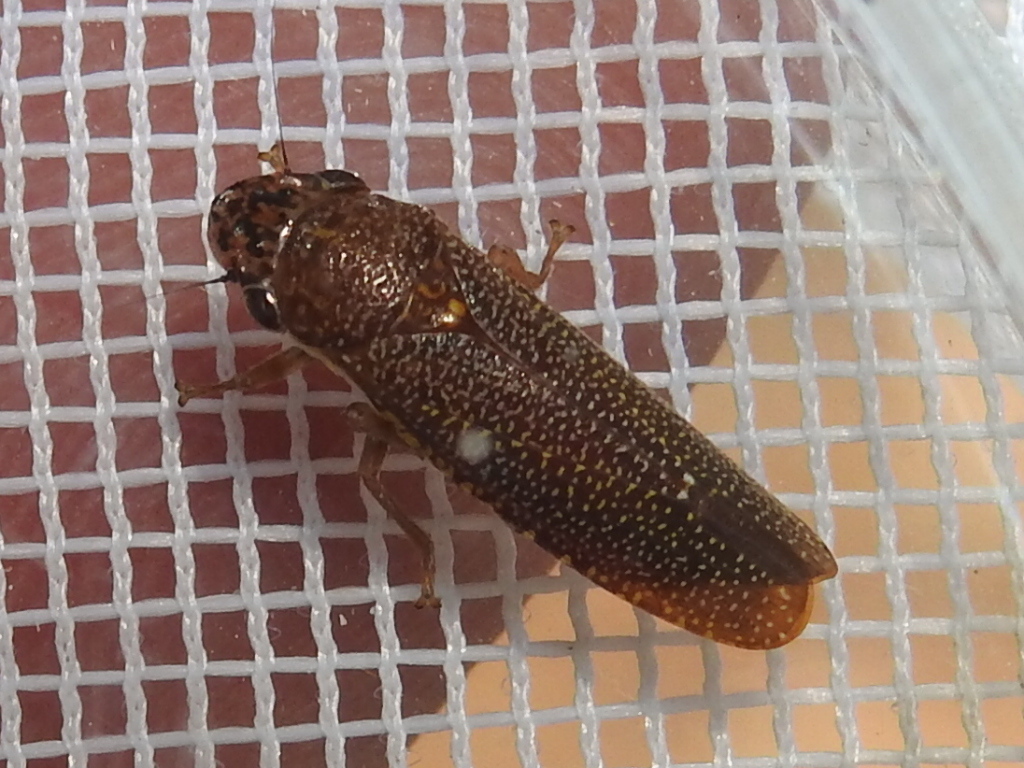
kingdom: Animalia
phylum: Arthropoda
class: Insecta
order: Hemiptera
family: Cicadellidae
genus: Paraulacizes
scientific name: Paraulacizes irrorata
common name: Speckled sharpshooter
